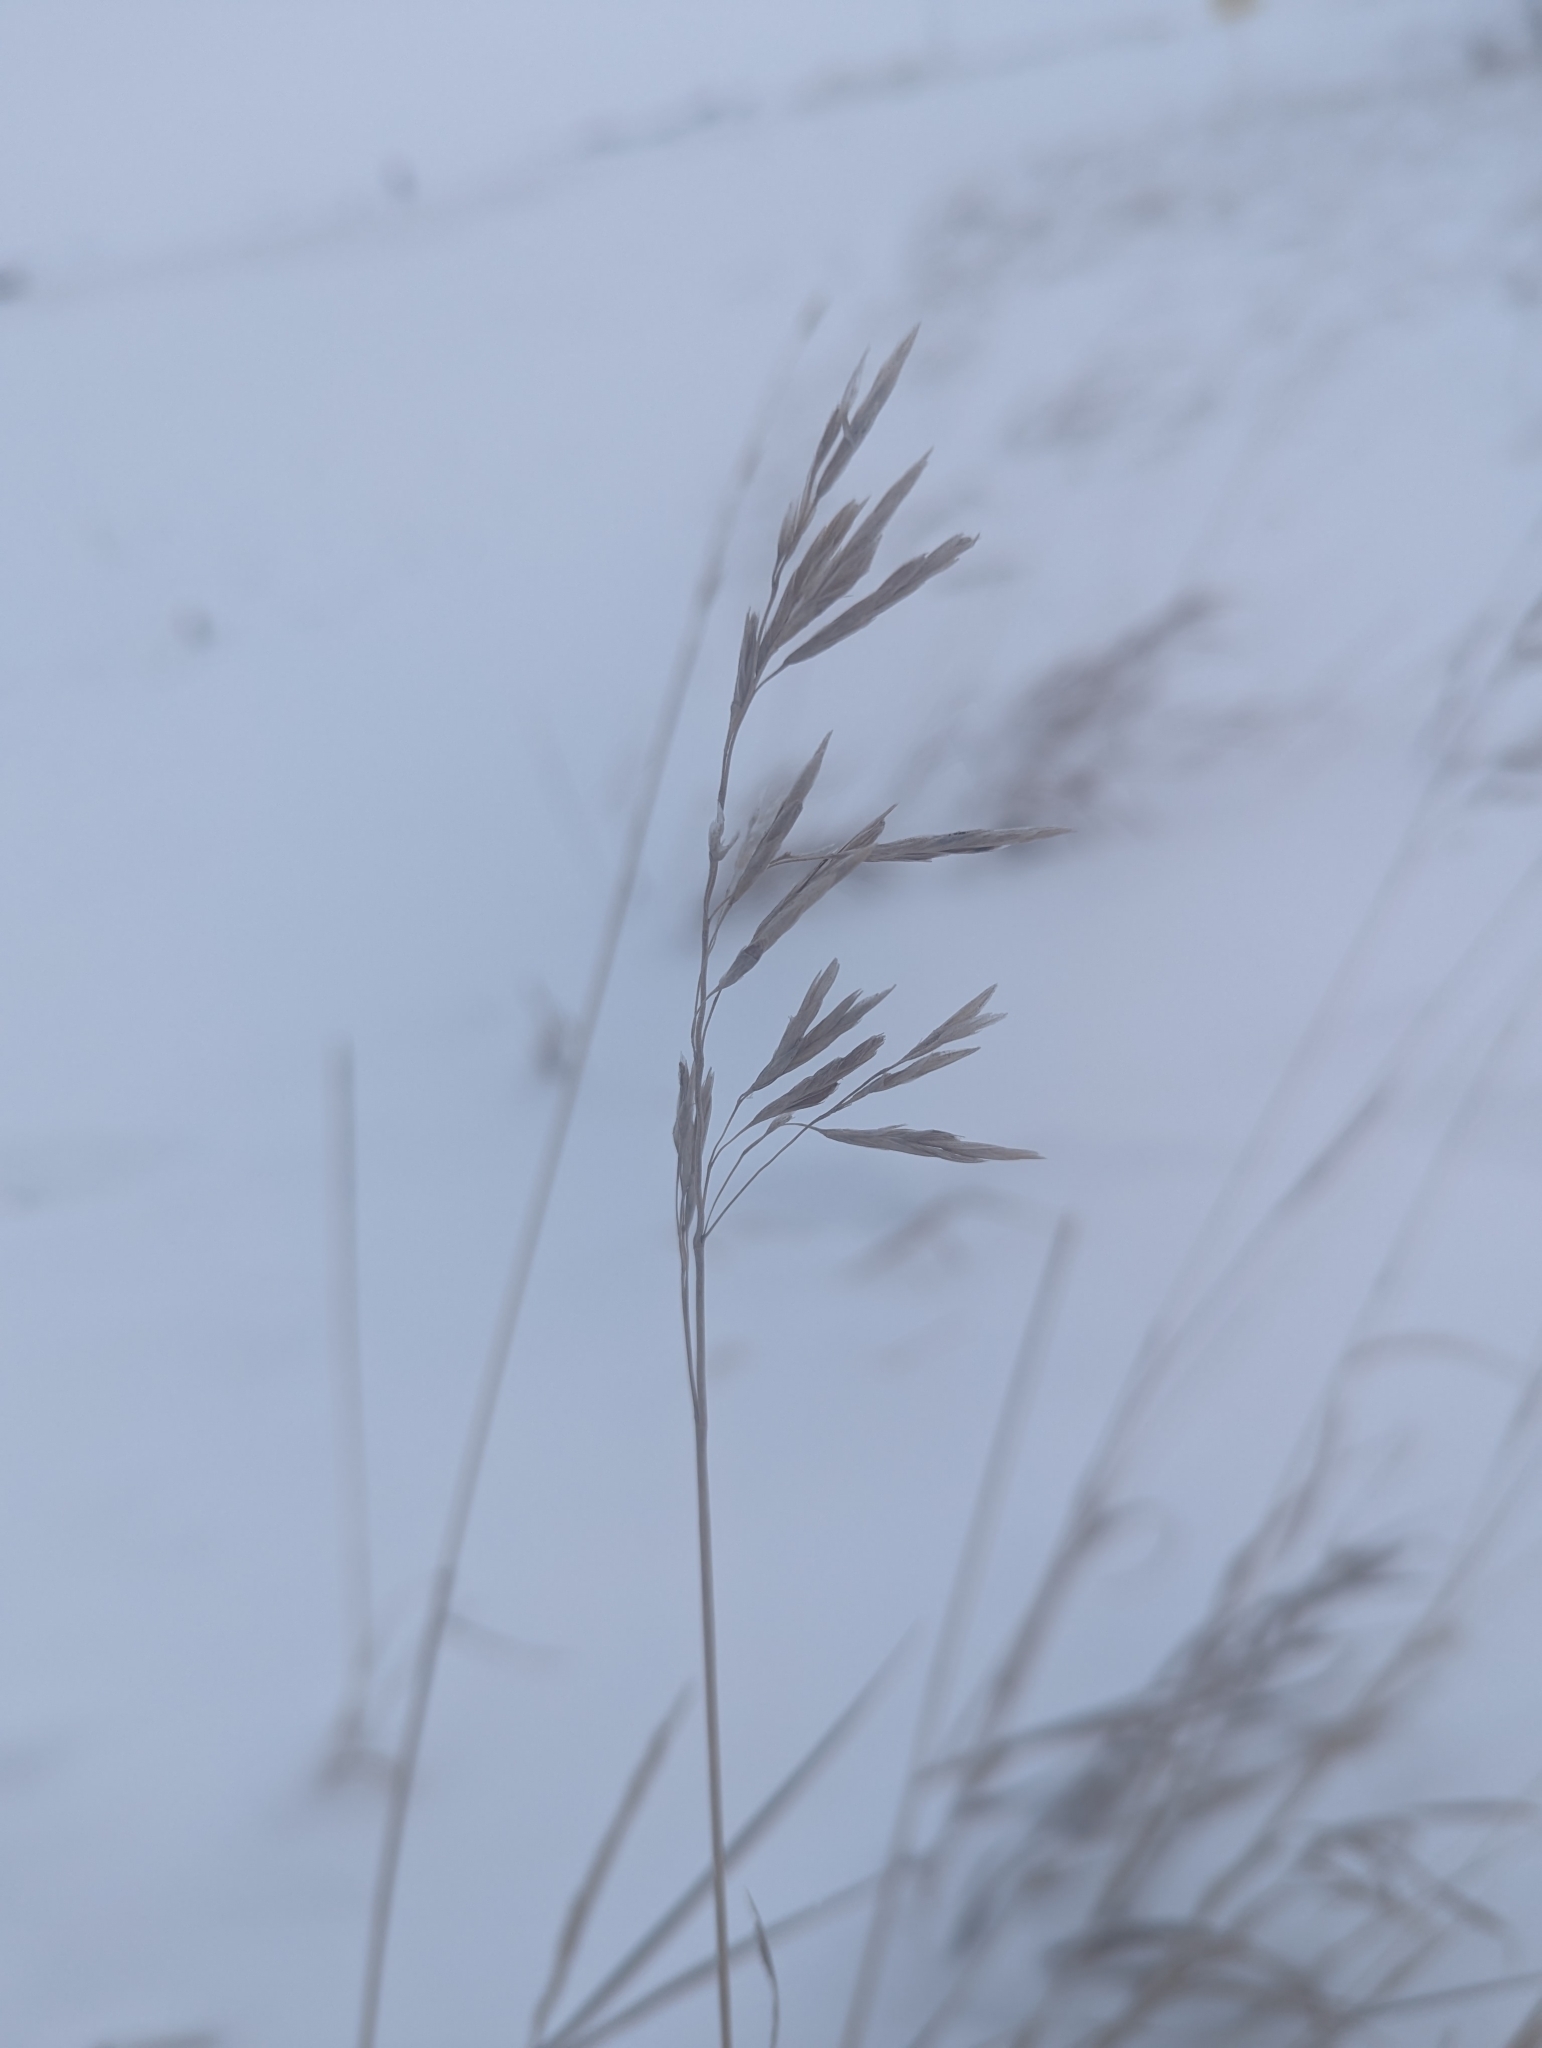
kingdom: Plantae
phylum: Tracheophyta
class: Liliopsida
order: Poales
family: Poaceae
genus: Bromus
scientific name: Bromus inermis
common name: Smooth brome
